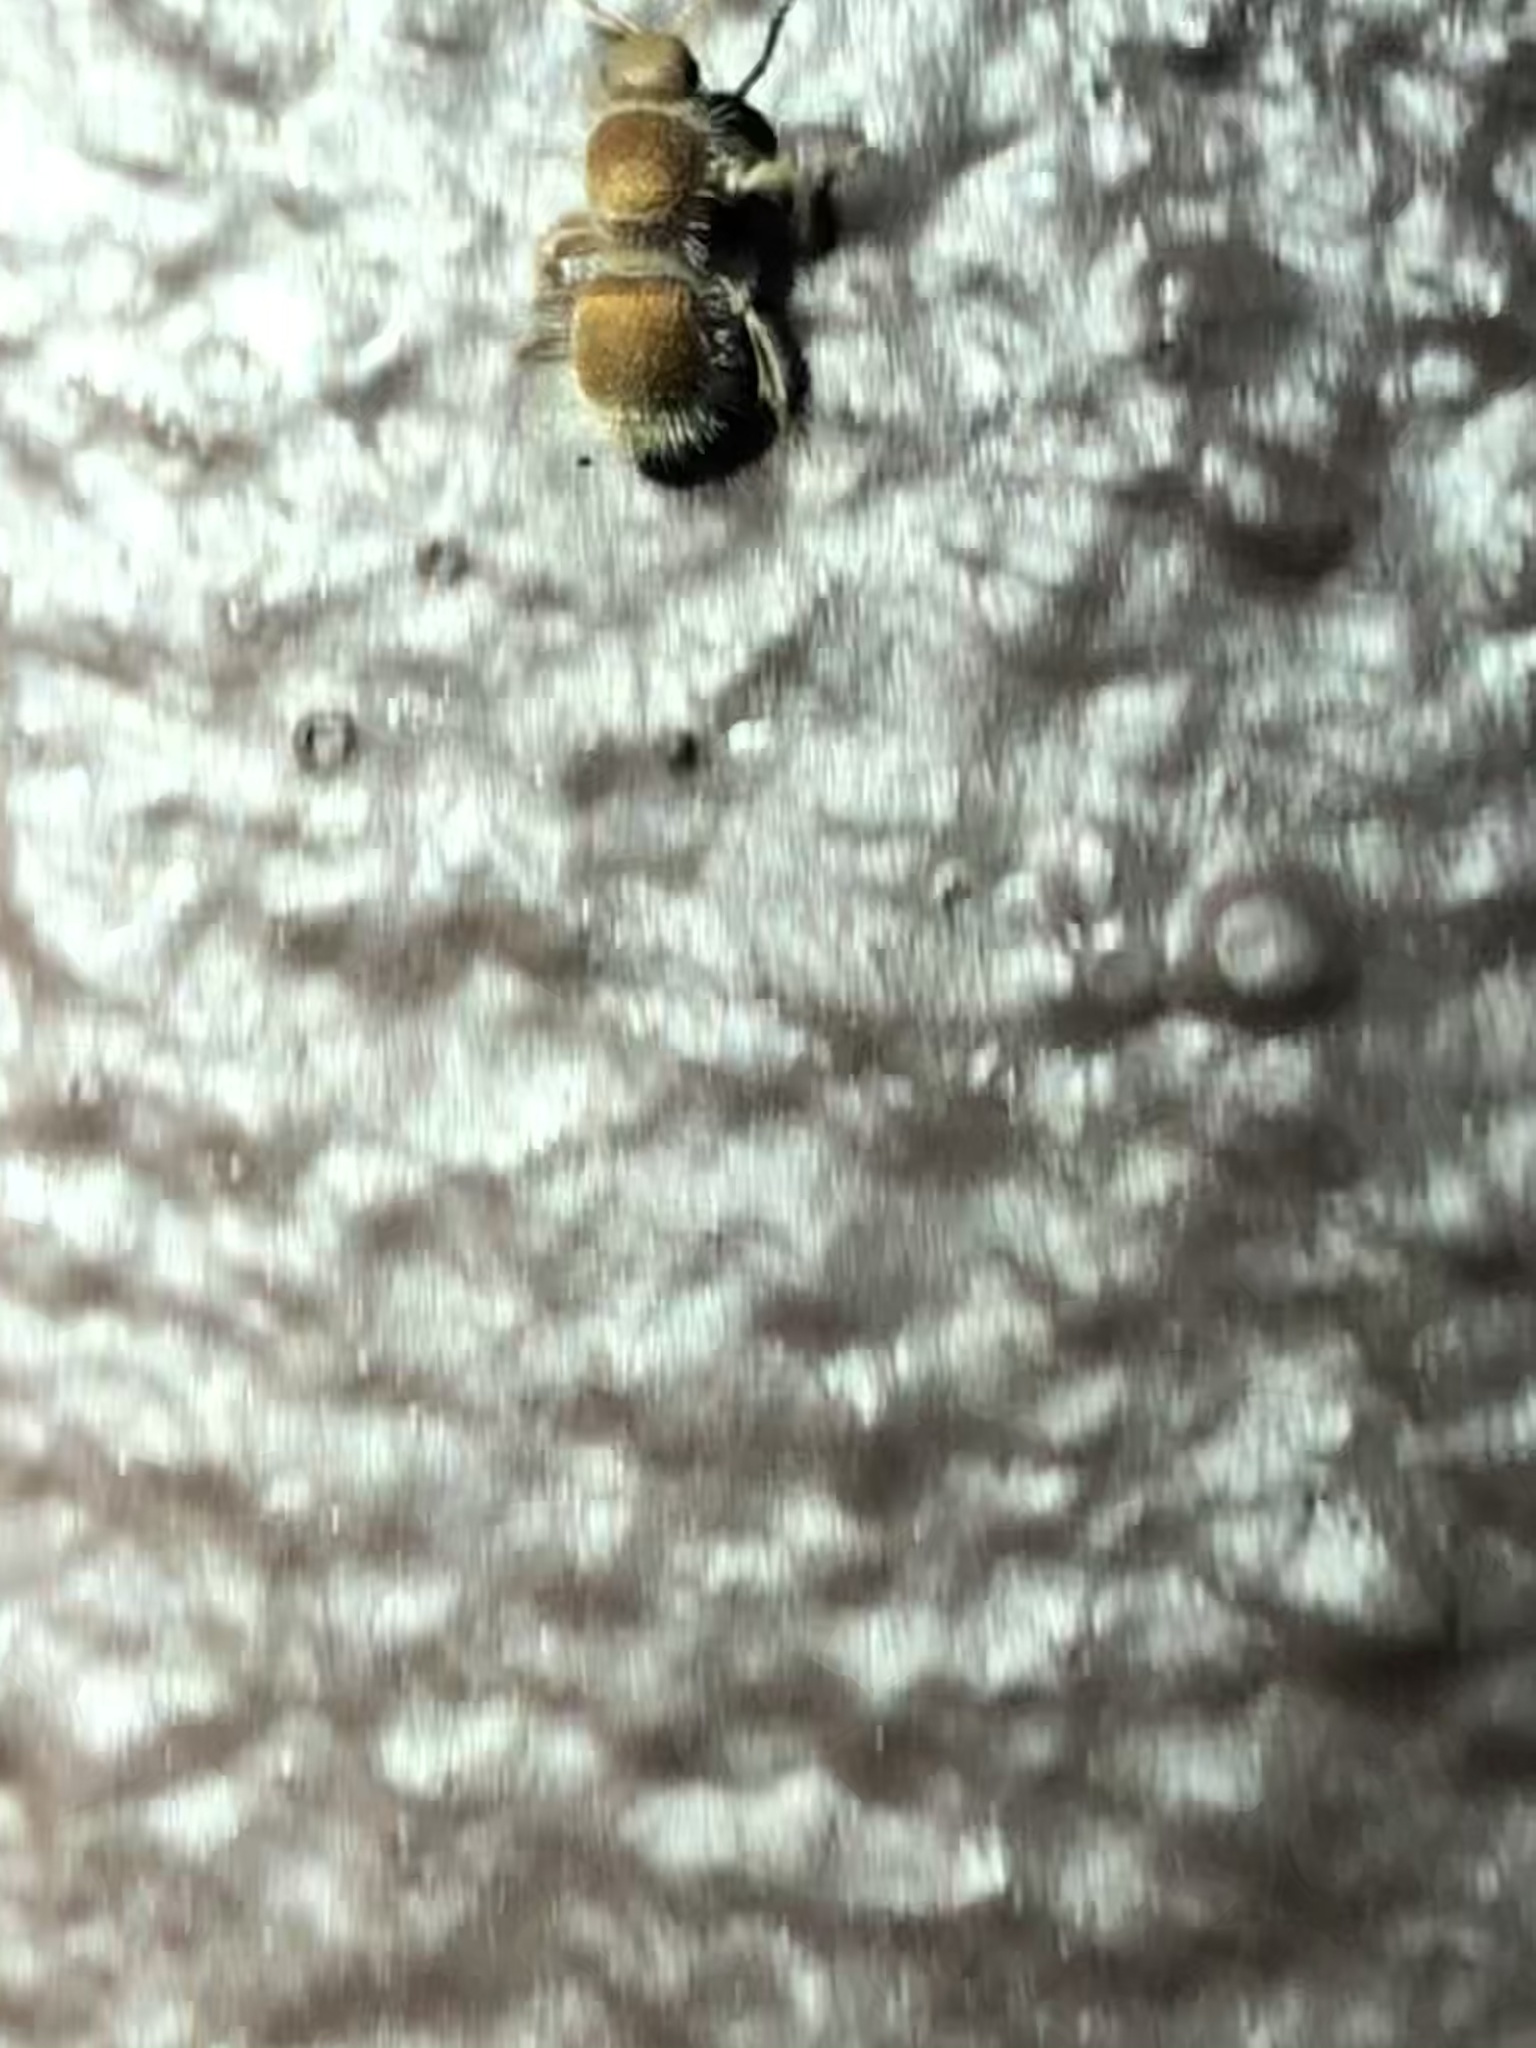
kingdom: Animalia
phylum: Arthropoda
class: Insecta
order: Hymenoptera
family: Mutillidae
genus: Odontophotopsis
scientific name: Odontophotopsis
